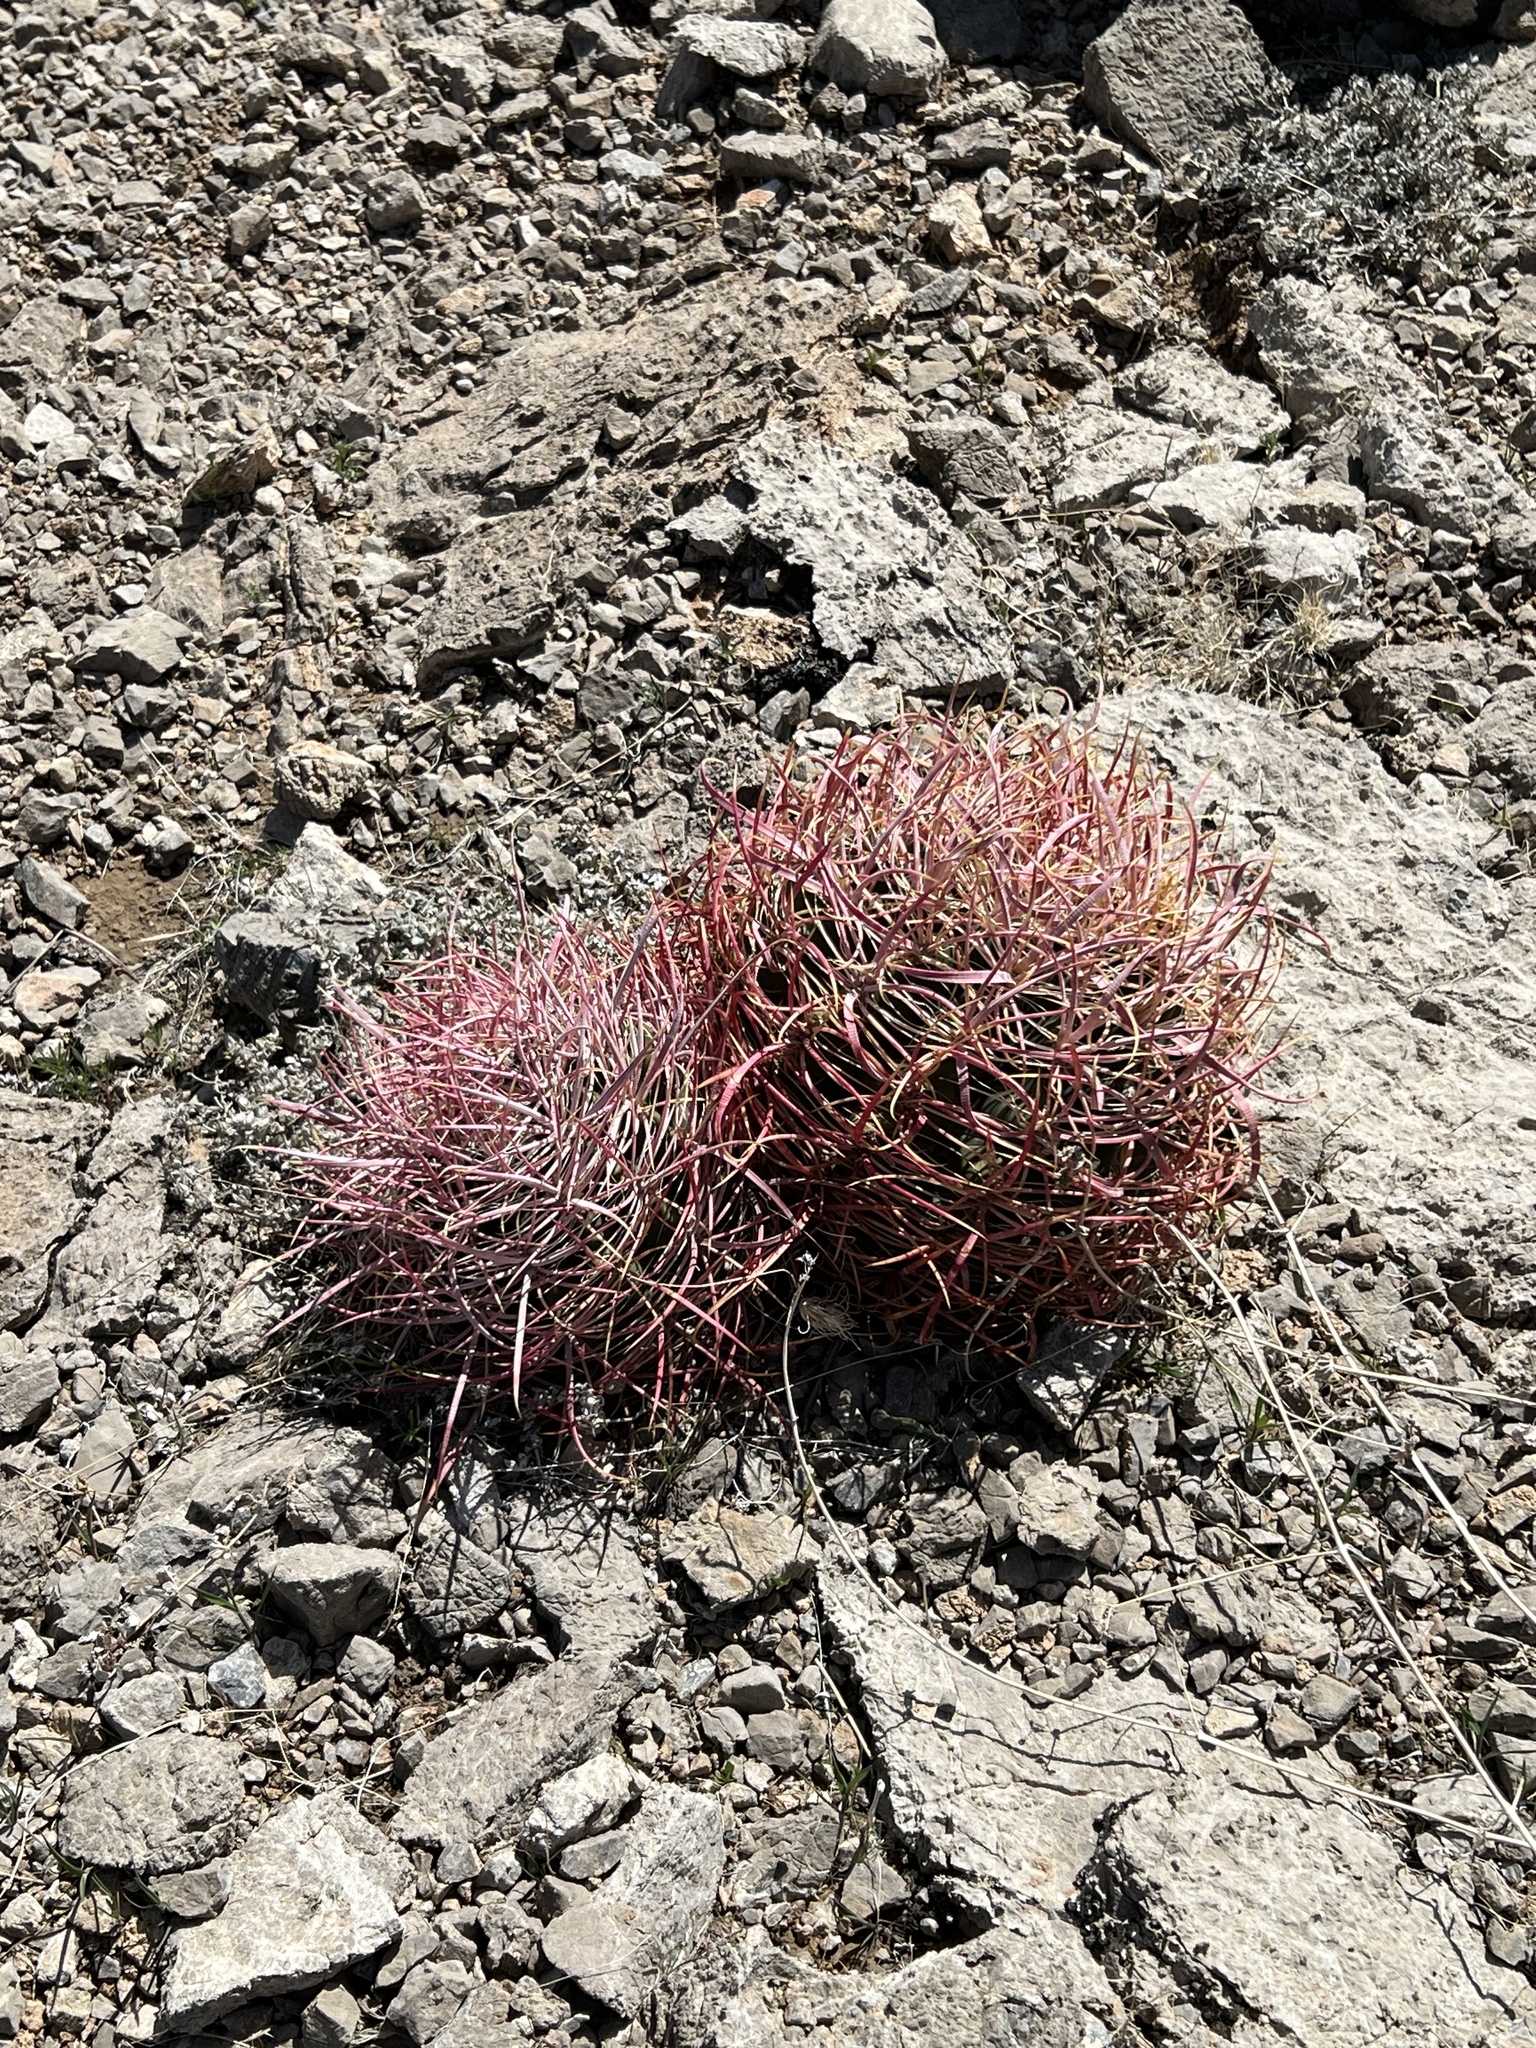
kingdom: Plantae
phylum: Tracheophyta
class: Magnoliopsida
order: Caryophyllales
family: Cactaceae
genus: Ferocactus
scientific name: Ferocactus cylindraceus
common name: California barrel cactus
